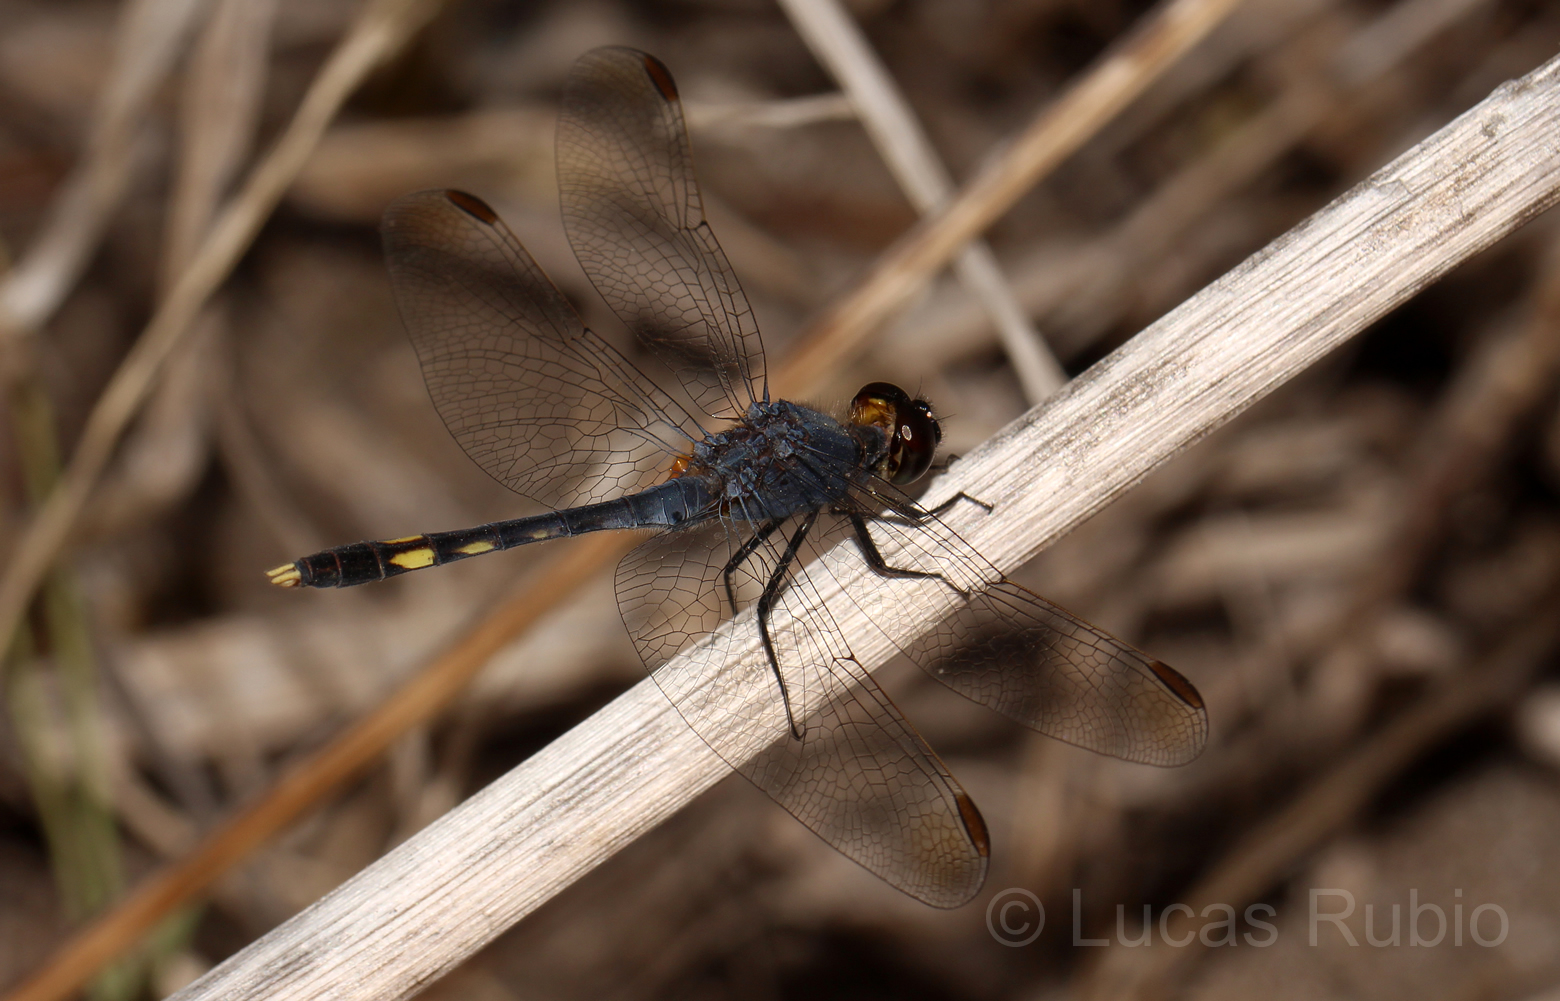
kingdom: Animalia
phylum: Arthropoda
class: Insecta
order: Odonata
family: Libellulidae
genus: Erythrodiplax
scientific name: Erythrodiplax nigricans
